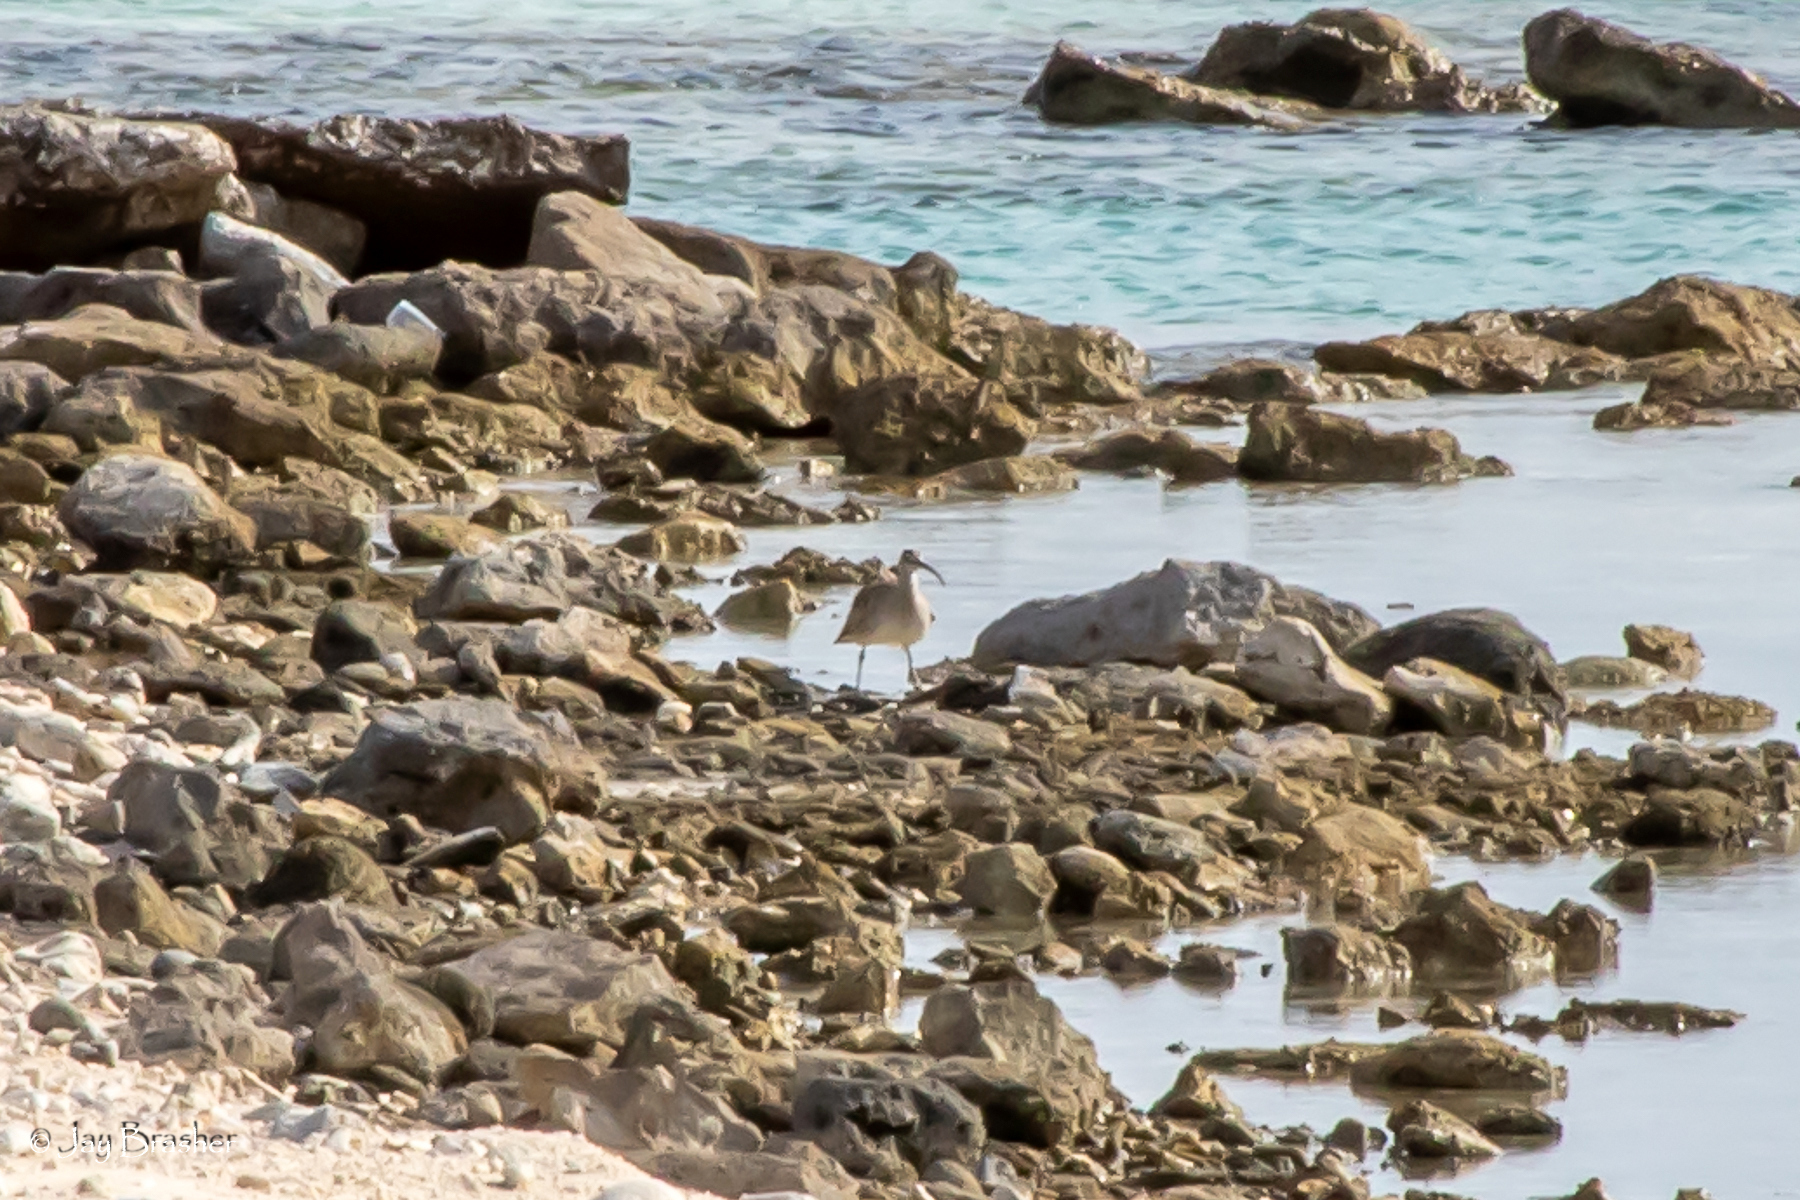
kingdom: Animalia
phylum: Chordata
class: Aves
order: Charadriiformes
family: Scolopacidae
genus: Numenius
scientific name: Numenius phaeopus
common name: Whimbrel
